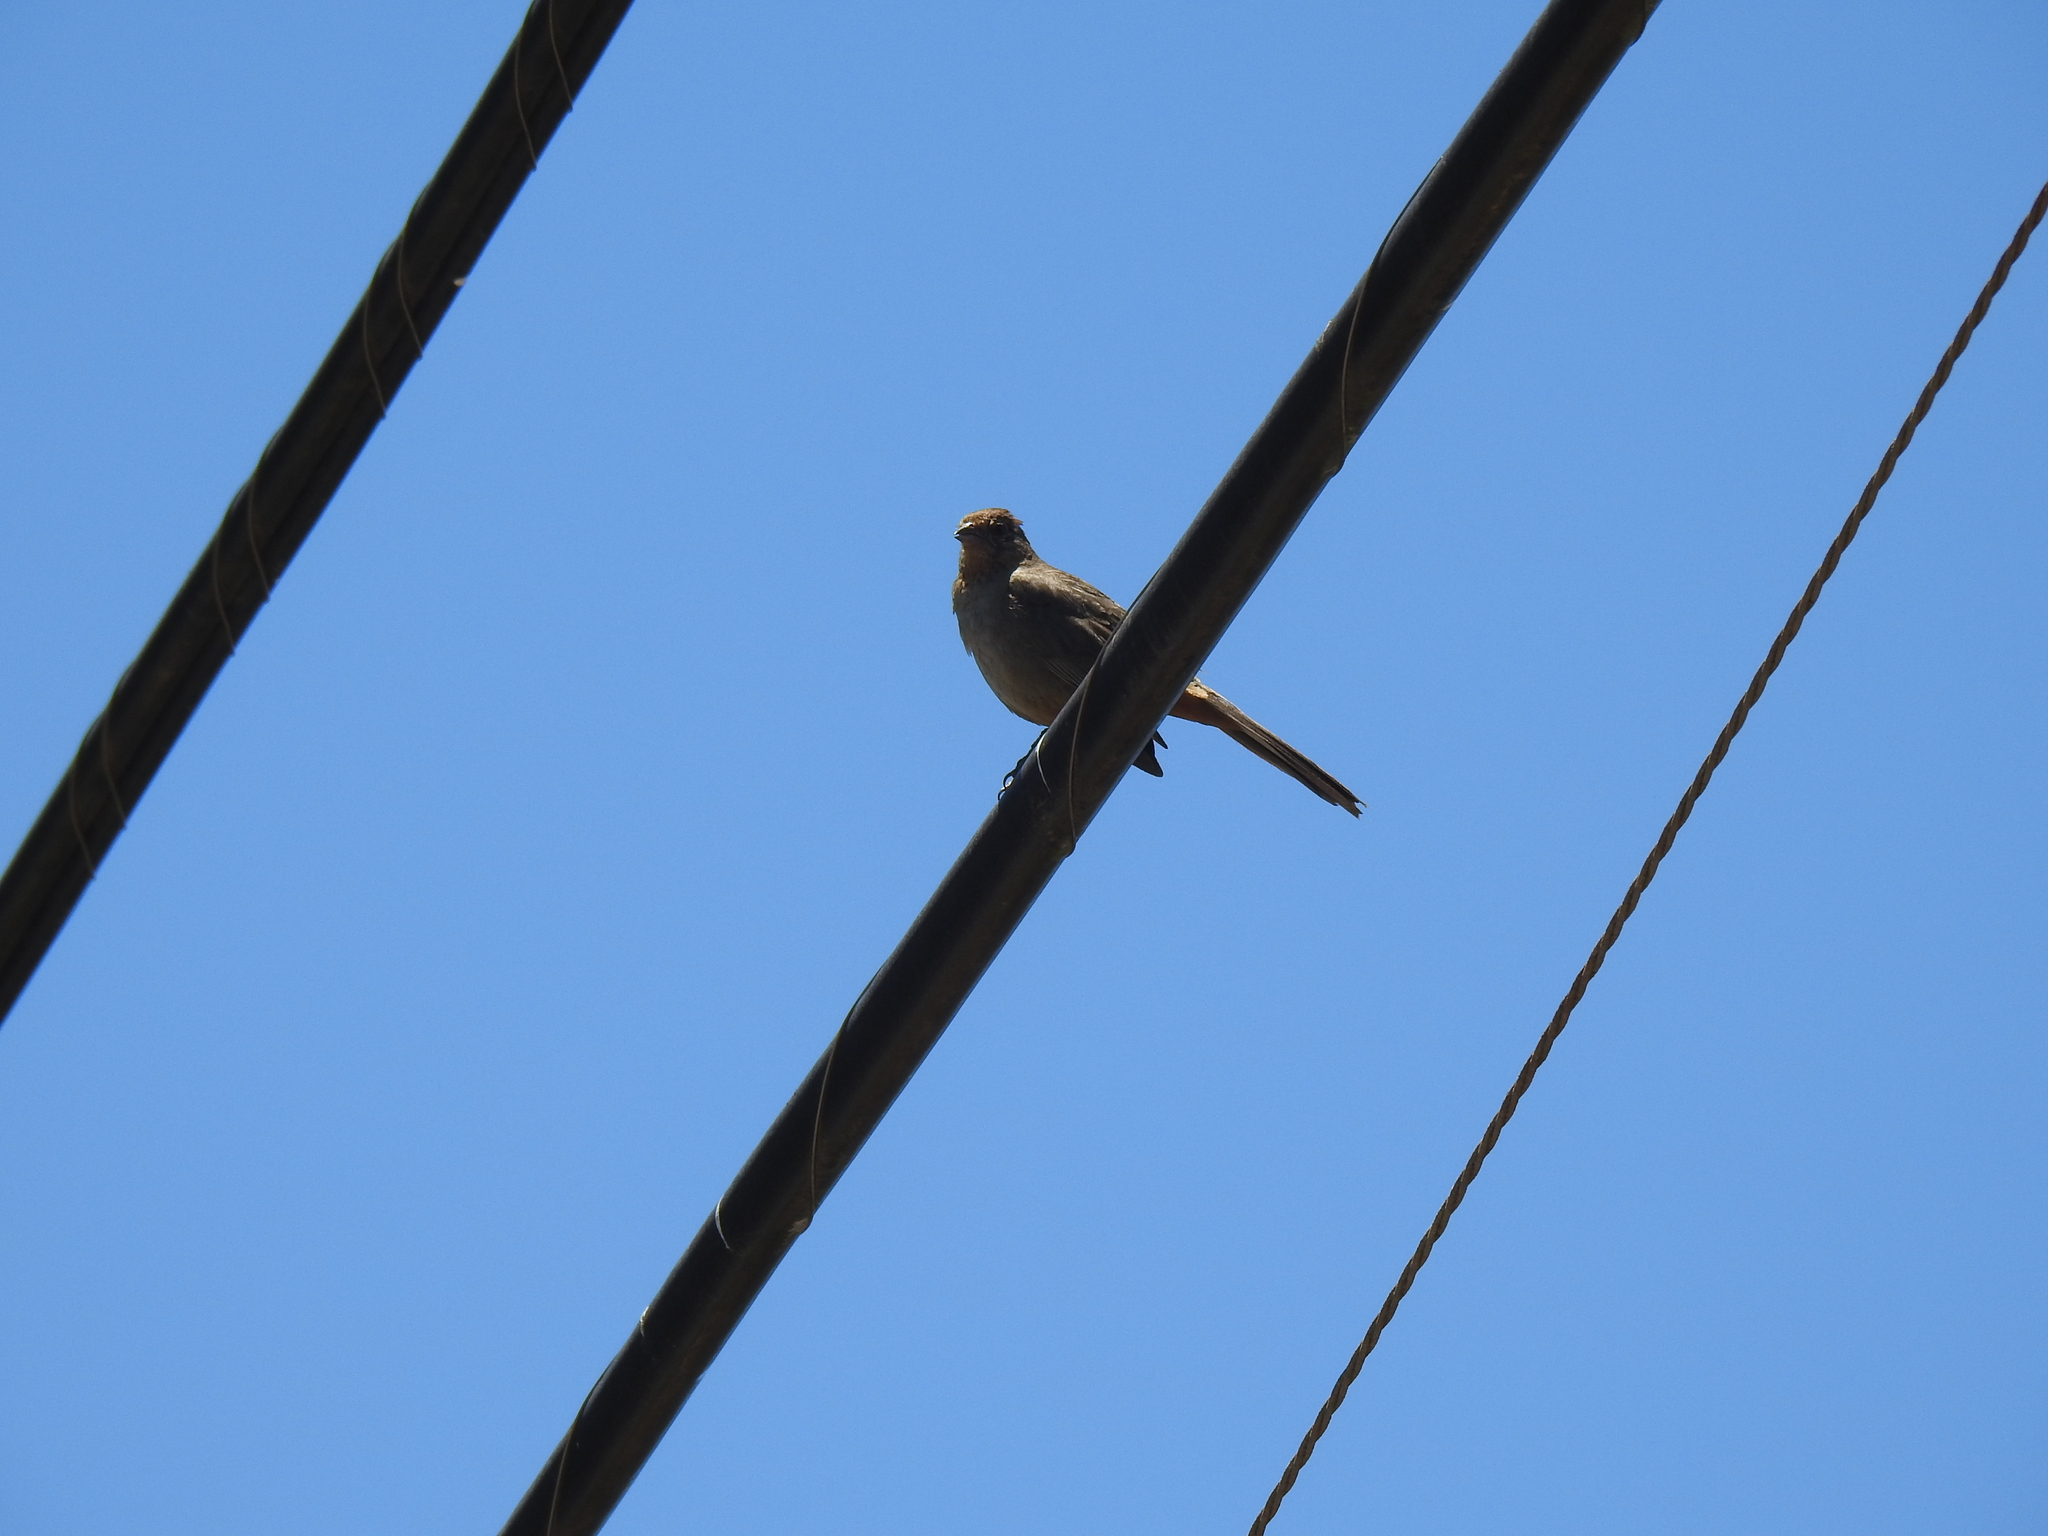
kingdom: Animalia
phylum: Chordata
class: Aves
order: Passeriformes
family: Passerellidae
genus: Melozone
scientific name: Melozone crissalis
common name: California towhee
